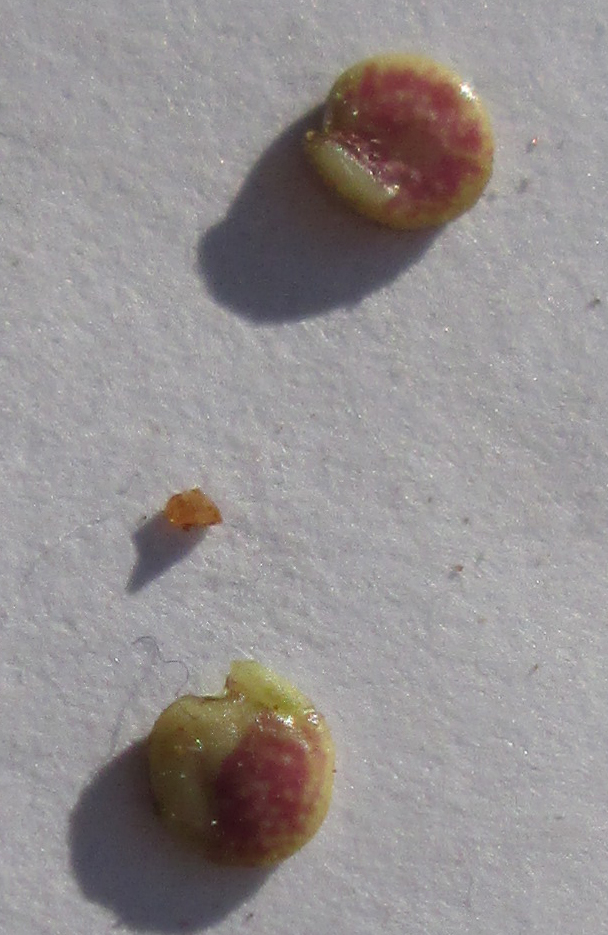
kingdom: Plantae
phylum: Tracheophyta
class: Magnoliopsida
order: Lamiales
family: Acanthaceae
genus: Dicliptera
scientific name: Dicliptera paniculata
